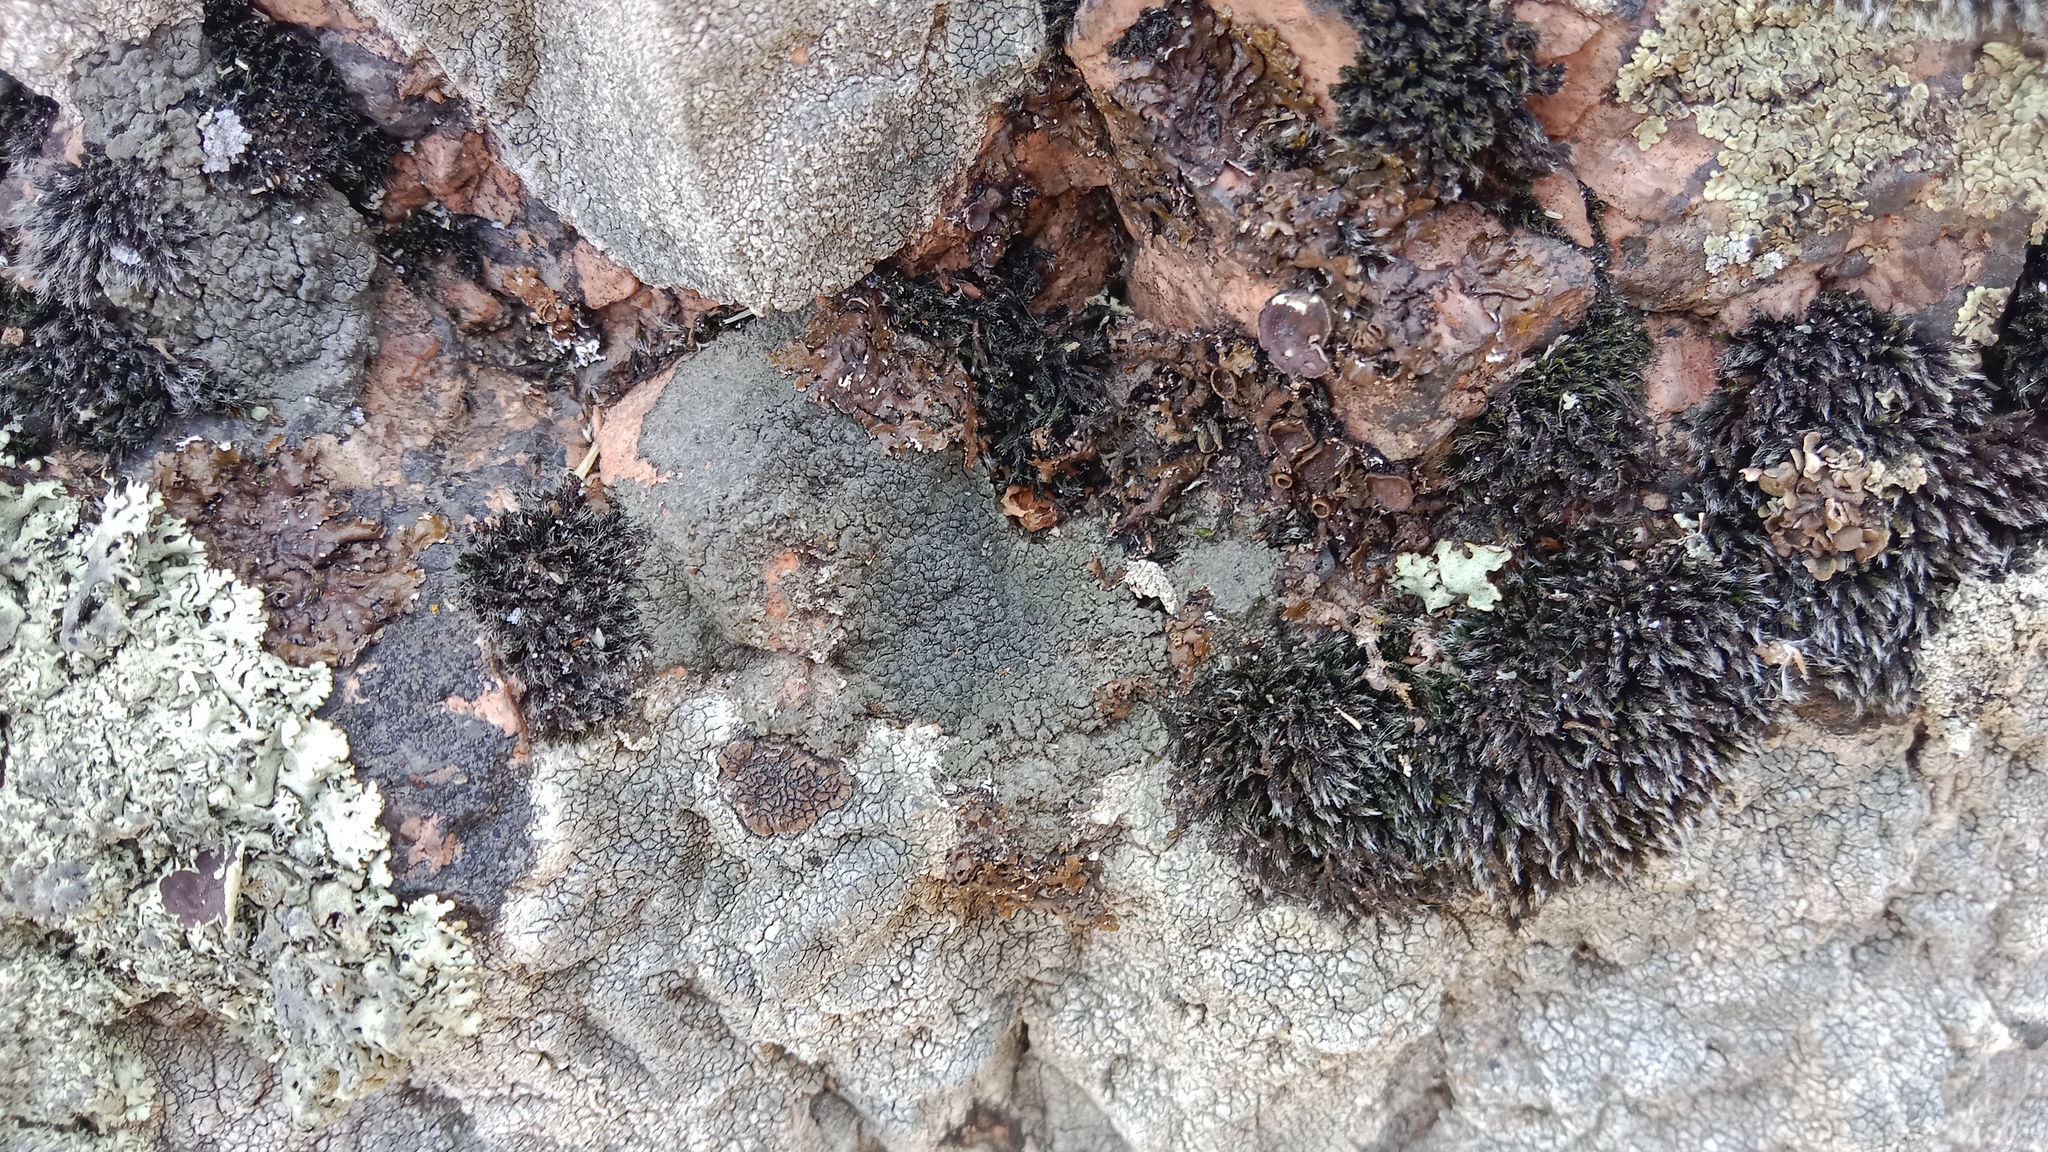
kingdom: Fungi
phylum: Ascomycota
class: Lecanoromycetes
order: Pertusariales
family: Megasporaceae
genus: Aspiciliella
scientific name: Aspiciliella intermutans
